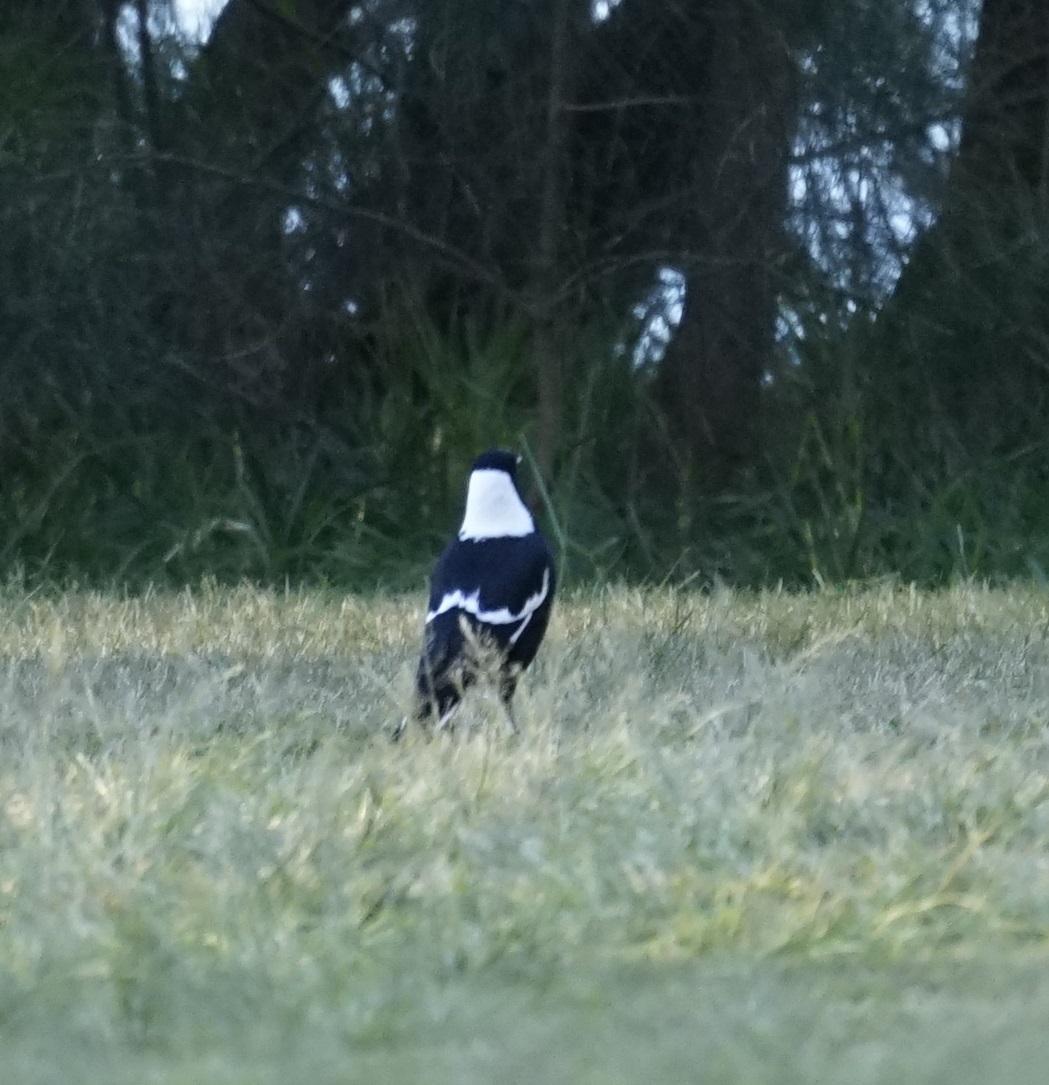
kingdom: Animalia
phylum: Chordata
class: Aves
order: Passeriformes
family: Cracticidae
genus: Gymnorhina
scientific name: Gymnorhina tibicen
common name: Australian magpie
